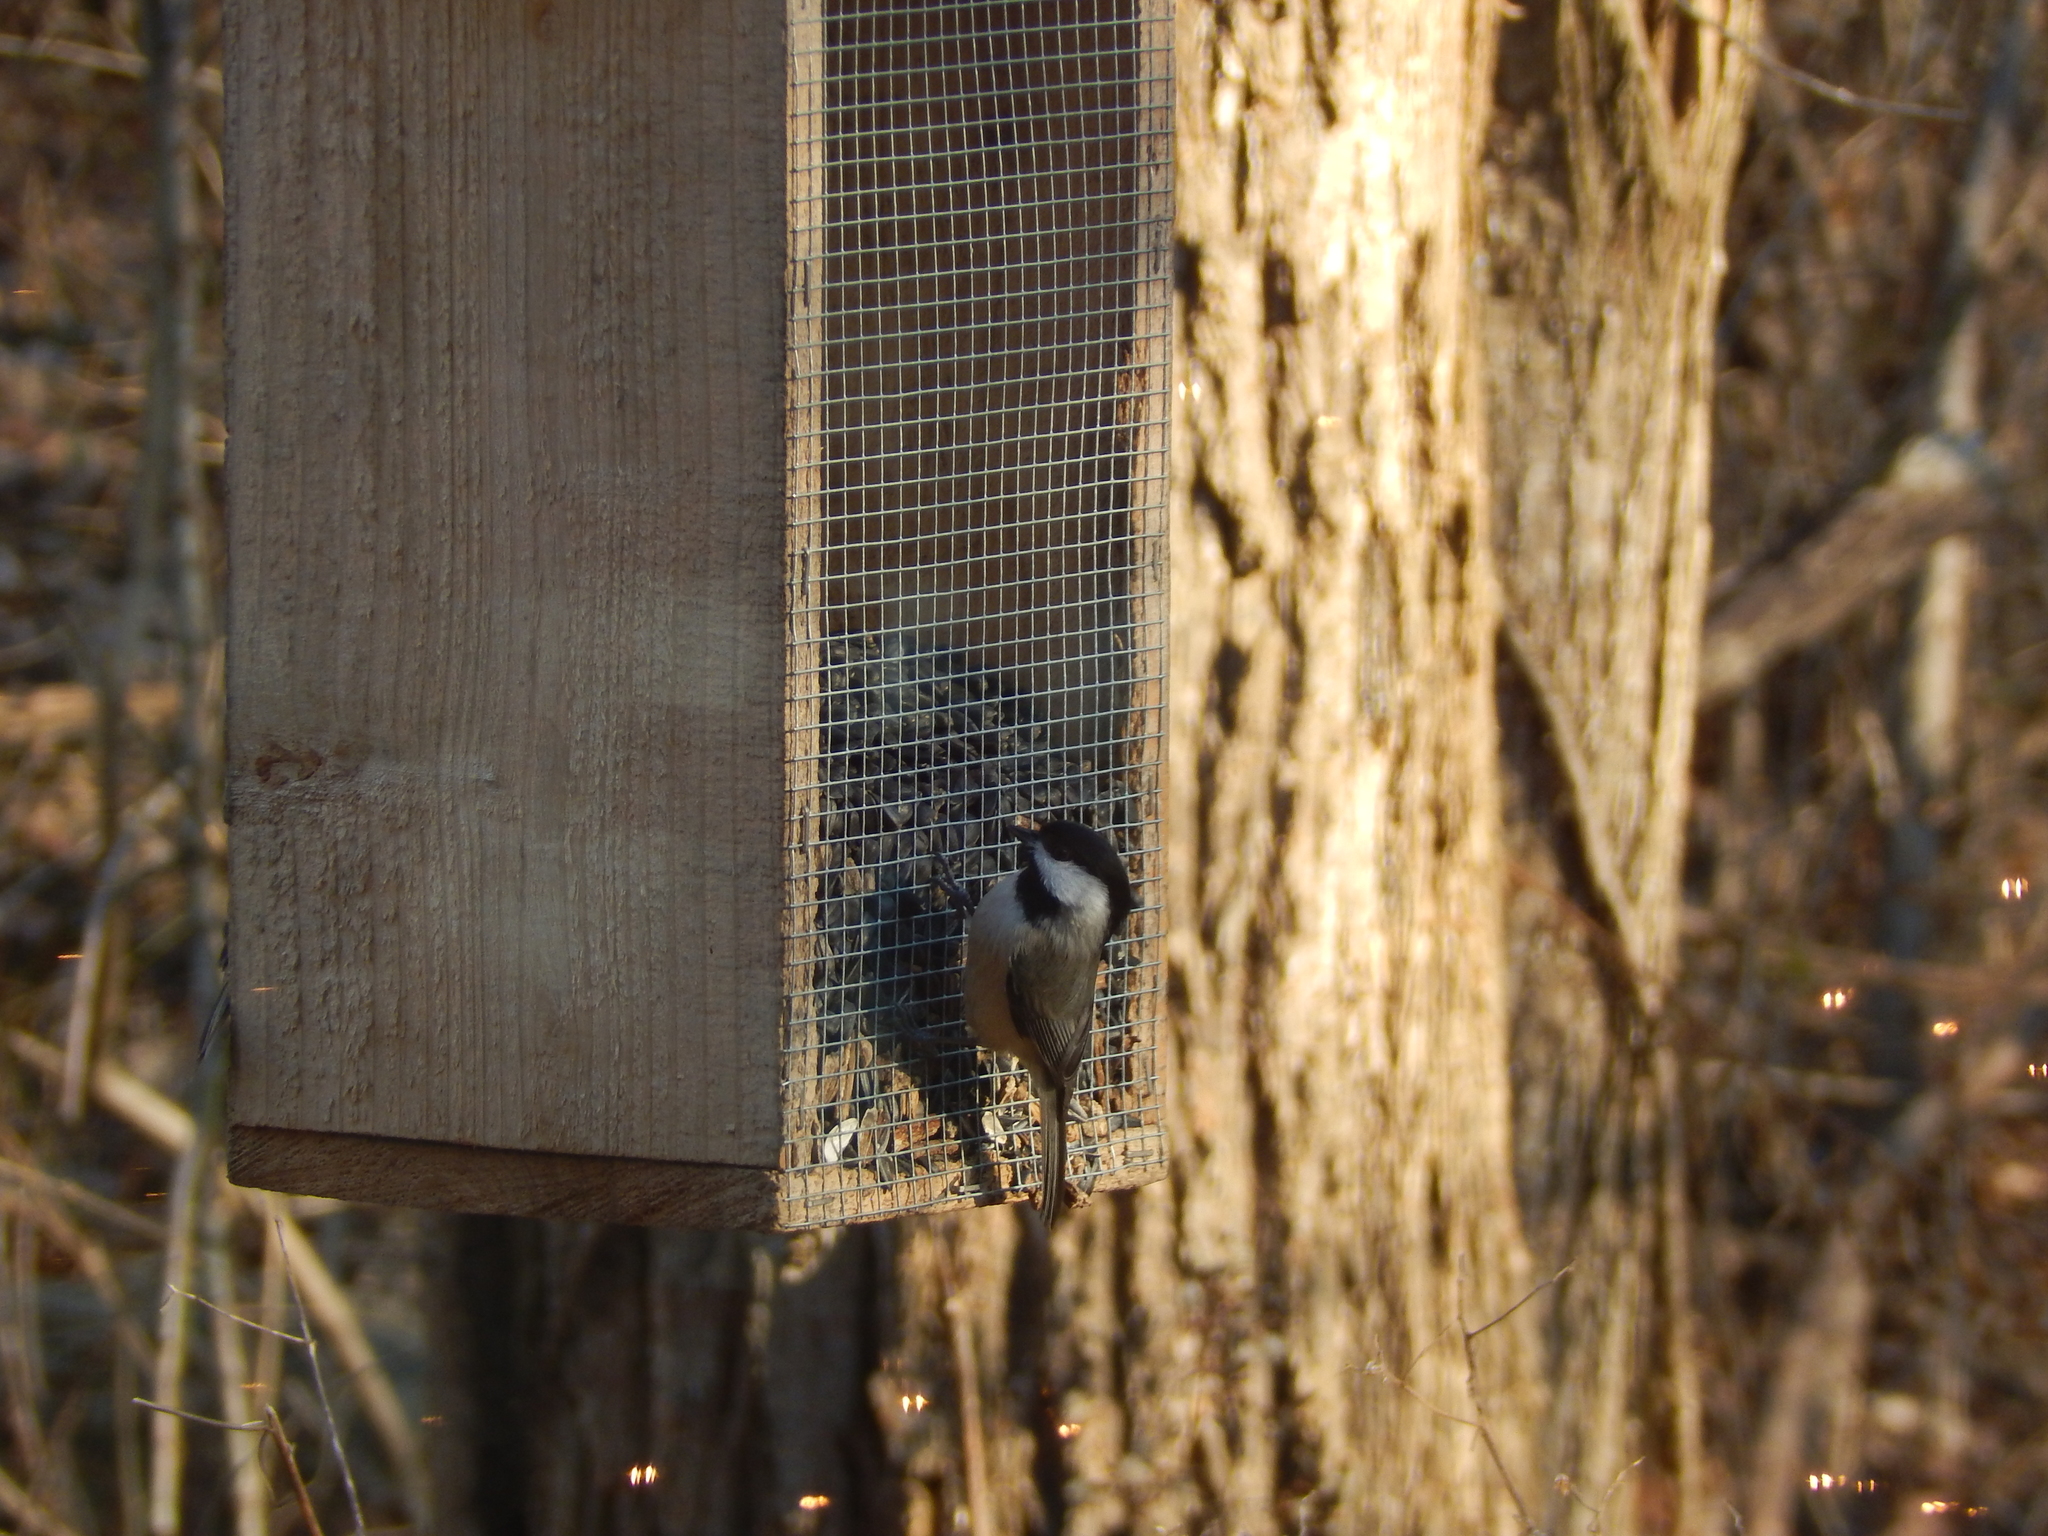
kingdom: Animalia
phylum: Chordata
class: Aves
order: Passeriformes
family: Paridae
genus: Poecile
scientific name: Poecile carolinensis
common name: Carolina chickadee
